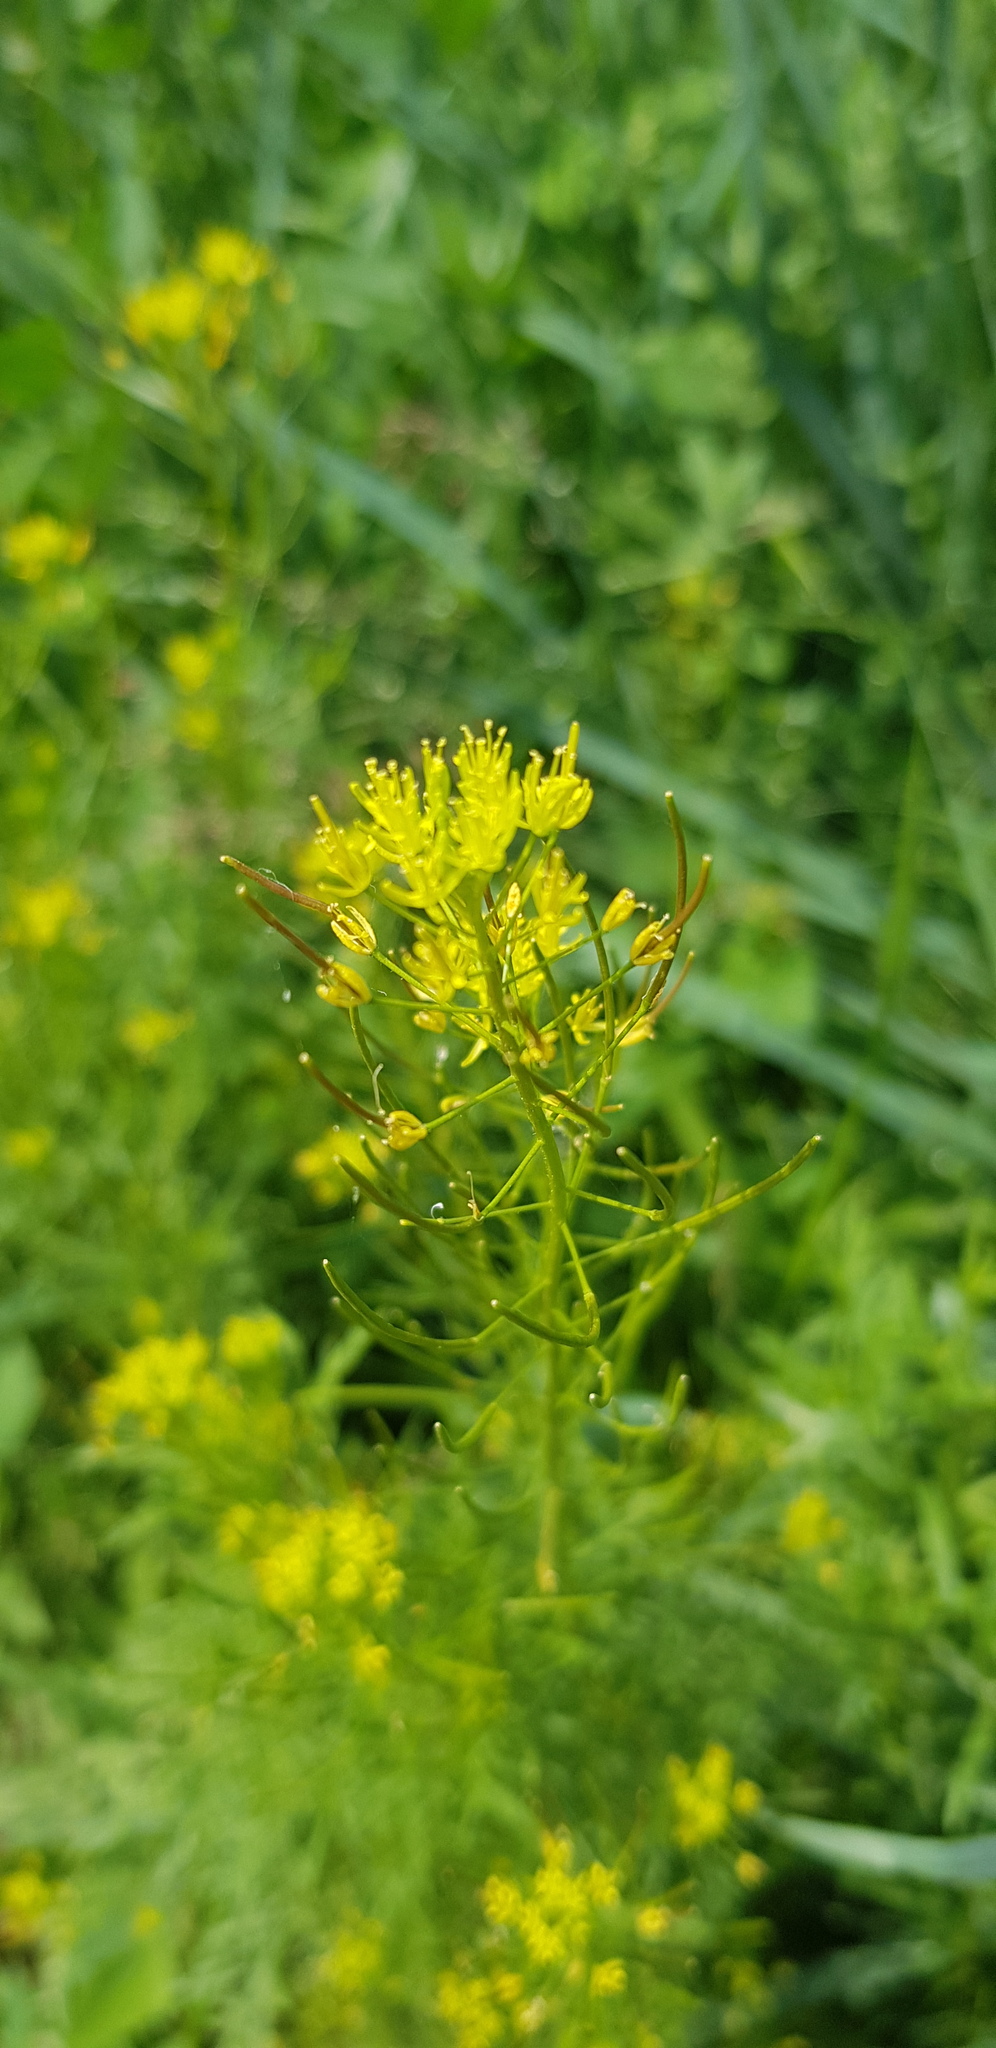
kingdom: Plantae
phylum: Tracheophyta
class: Magnoliopsida
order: Brassicales
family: Brassicaceae
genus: Descurainia
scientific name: Descurainia sophia
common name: Flixweed
